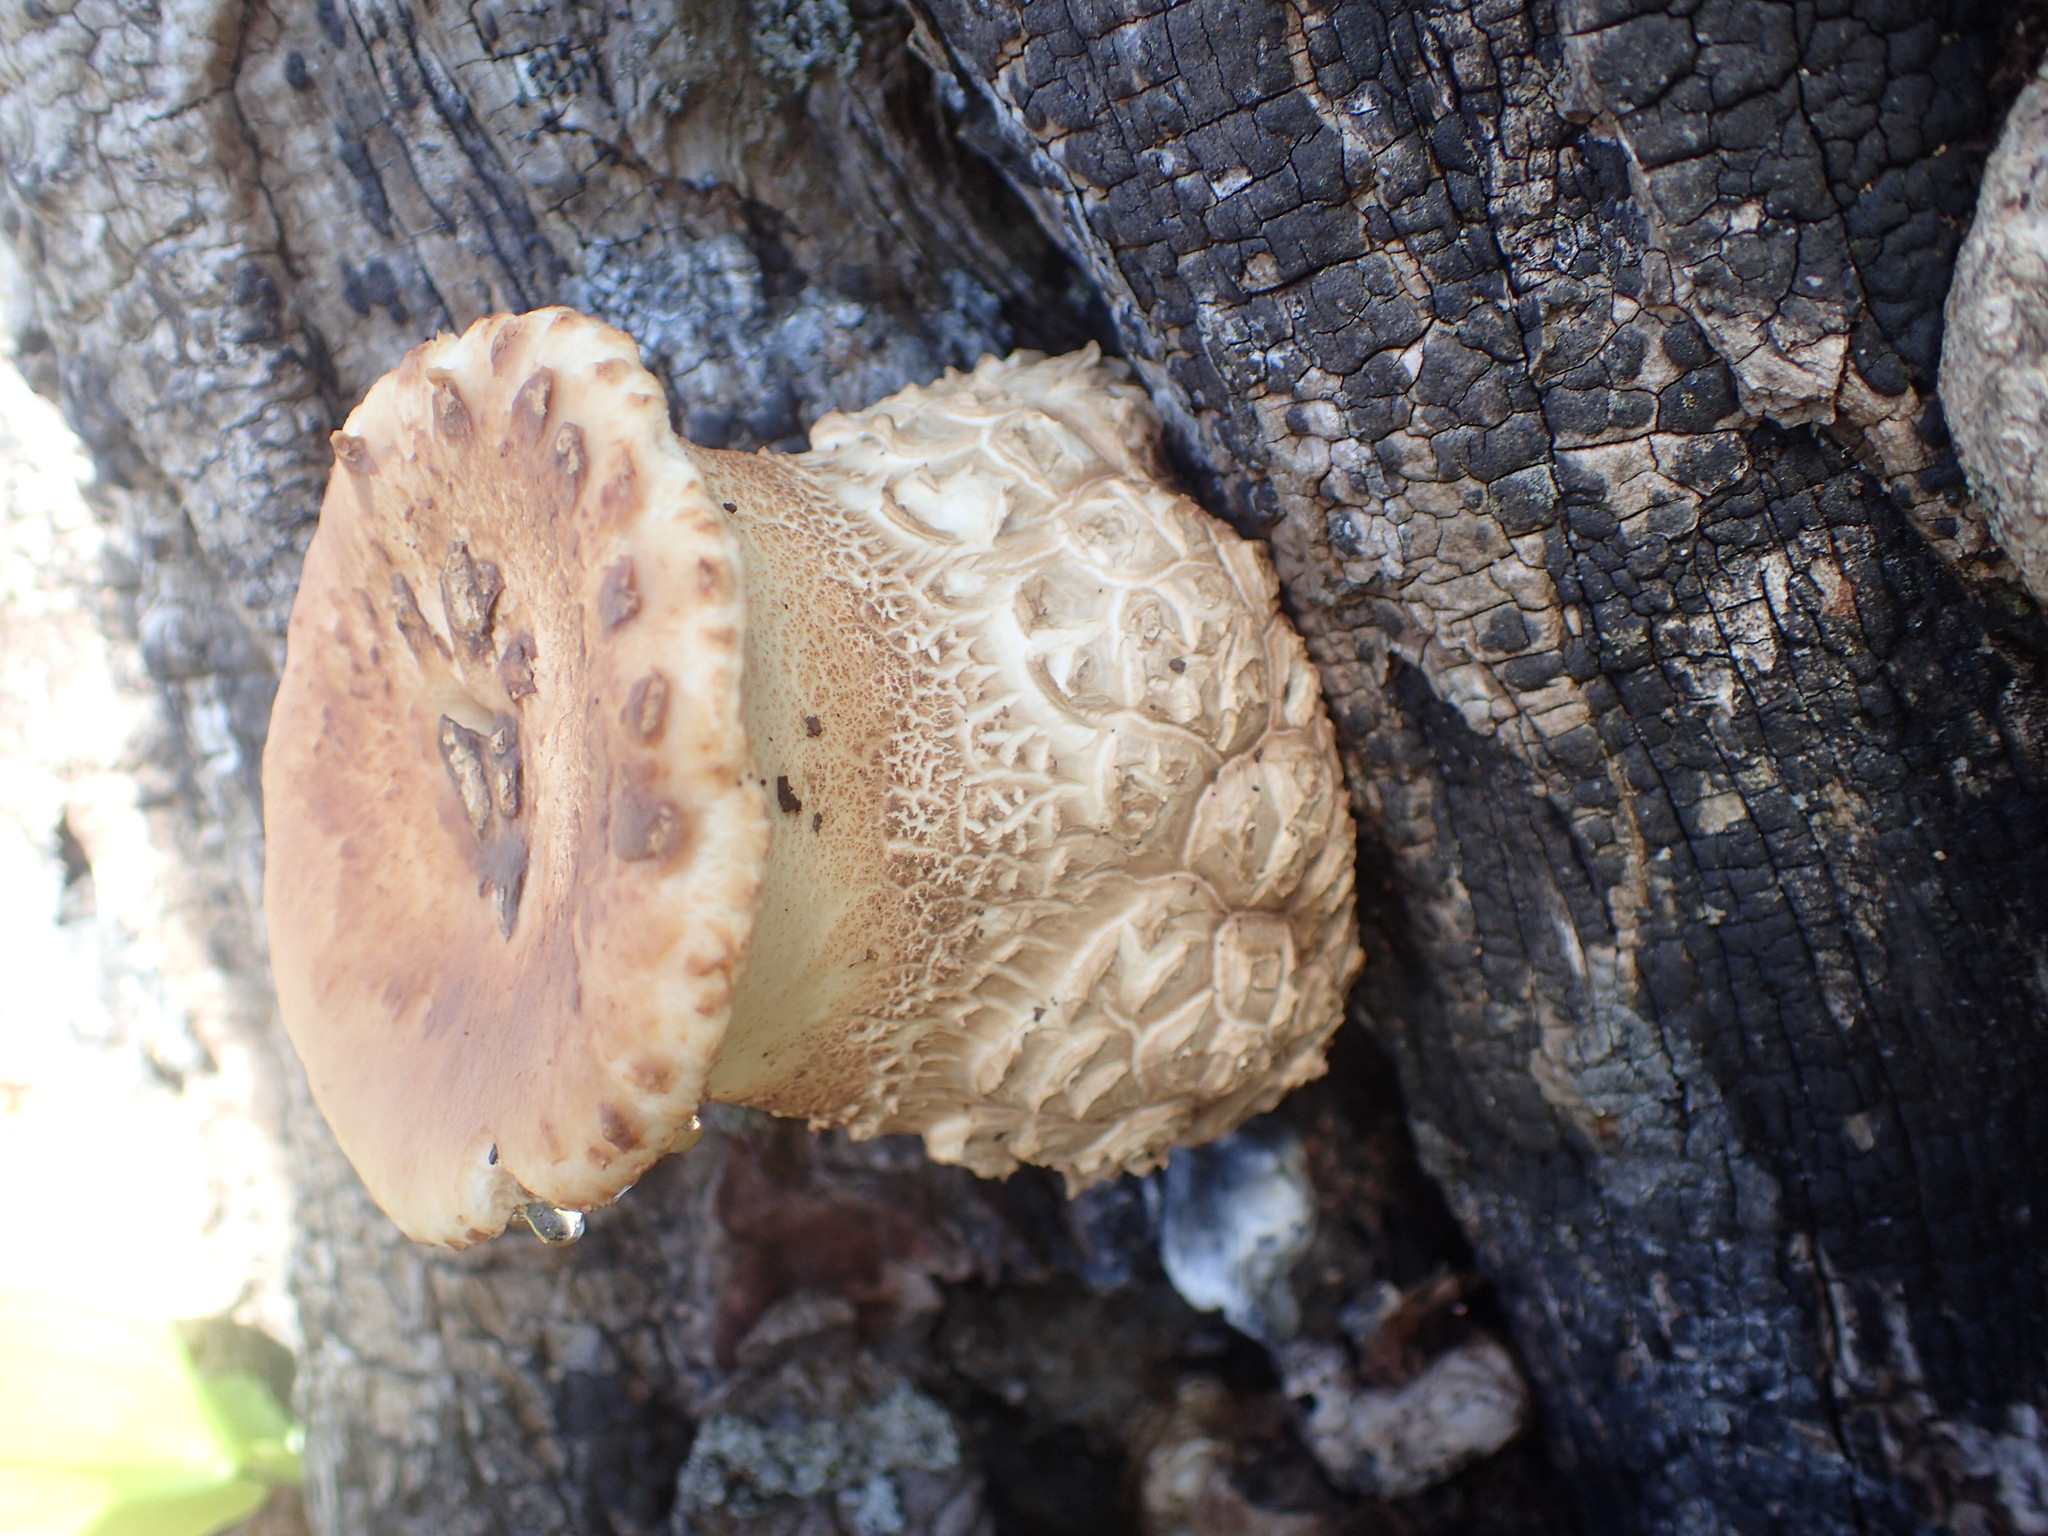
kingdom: Fungi
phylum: Basidiomycota
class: Agaricomycetes
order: Polyporales
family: Polyporaceae
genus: Cerioporus
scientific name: Cerioporus squamosus
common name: Dryad's saddle
